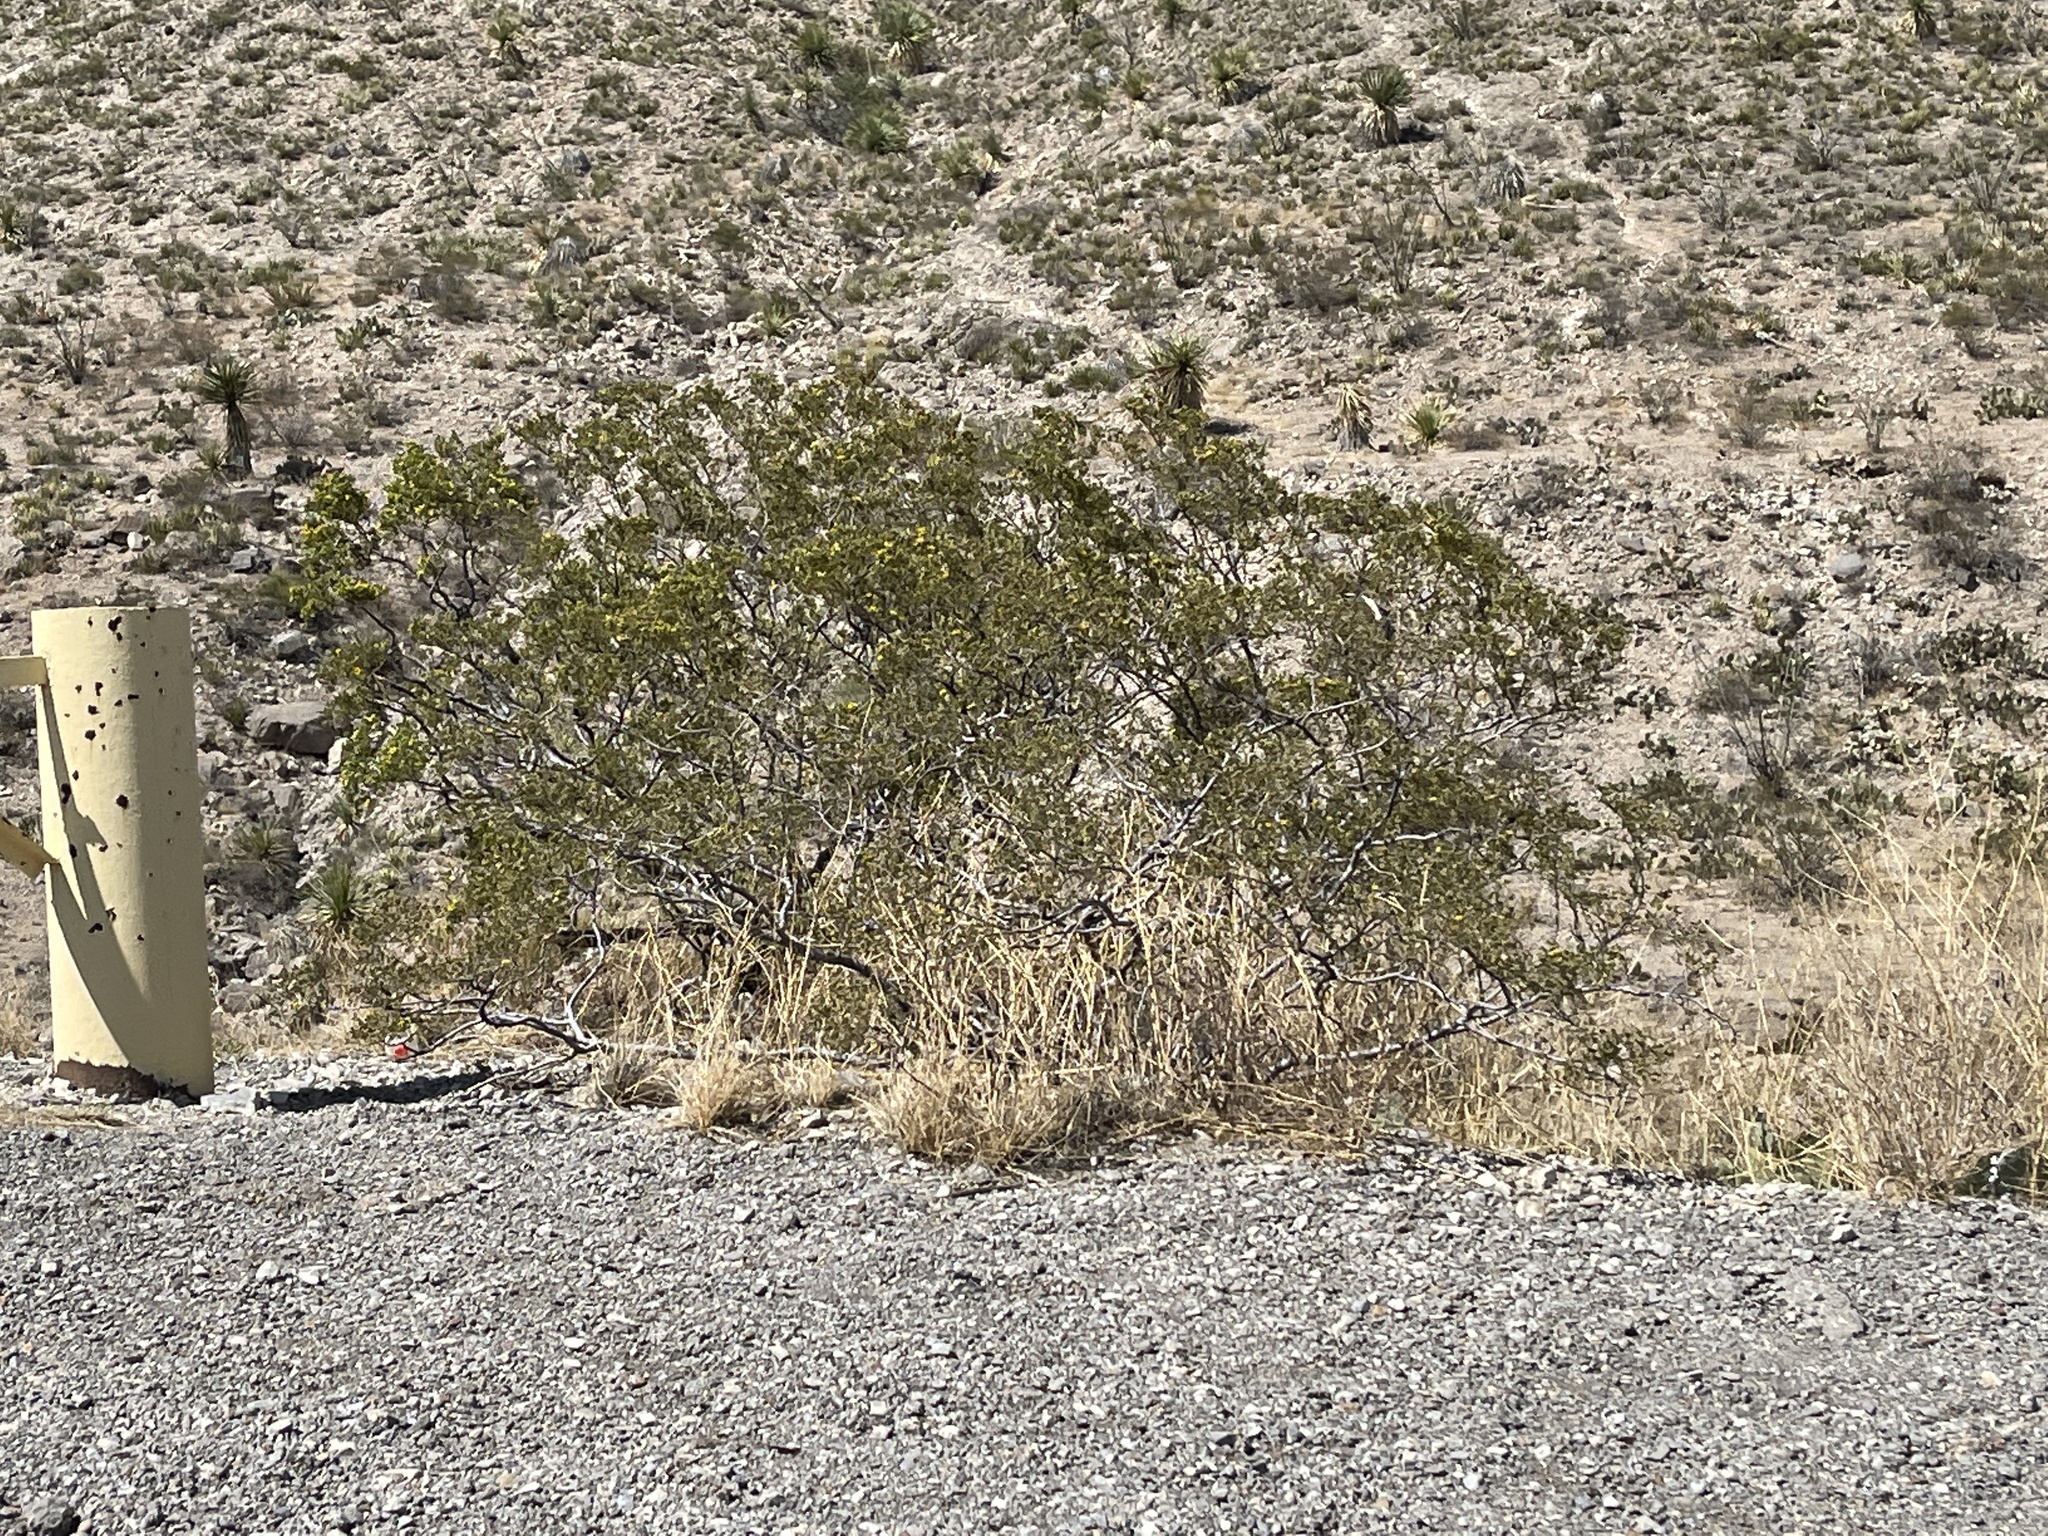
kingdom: Plantae
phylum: Tracheophyta
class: Magnoliopsida
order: Zygophyllales
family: Zygophyllaceae
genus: Larrea
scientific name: Larrea tridentata
